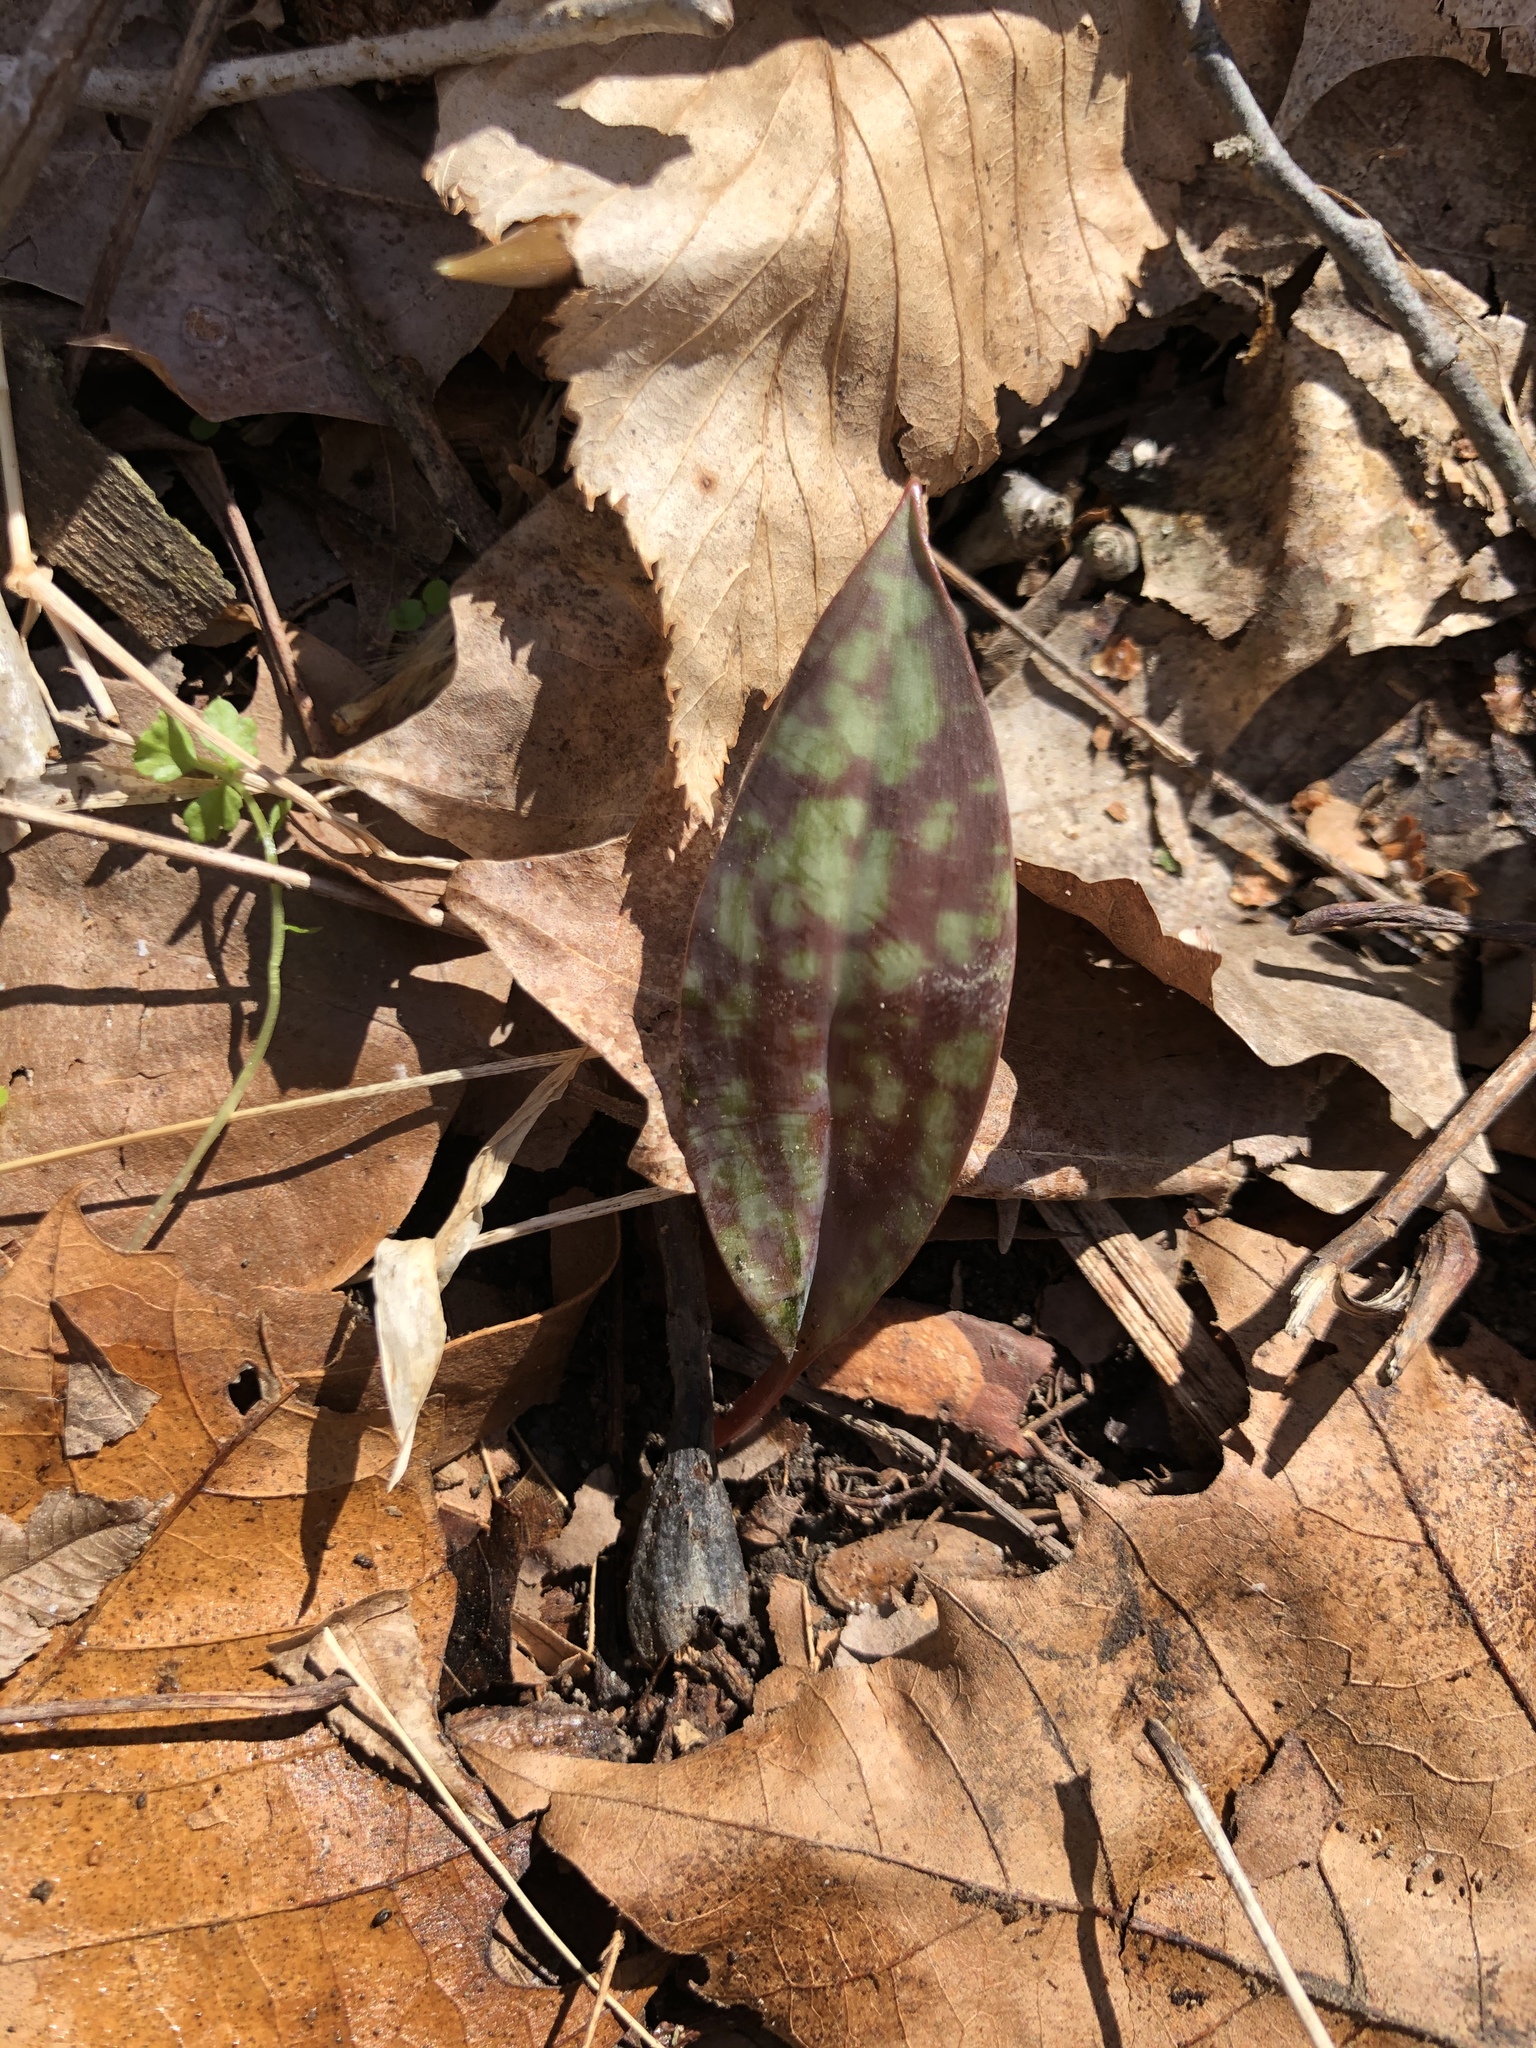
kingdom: Plantae
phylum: Tracheophyta
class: Liliopsida
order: Liliales
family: Liliaceae
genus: Erythronium
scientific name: Erythronium americanum
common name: Yellow adder's-tongue
